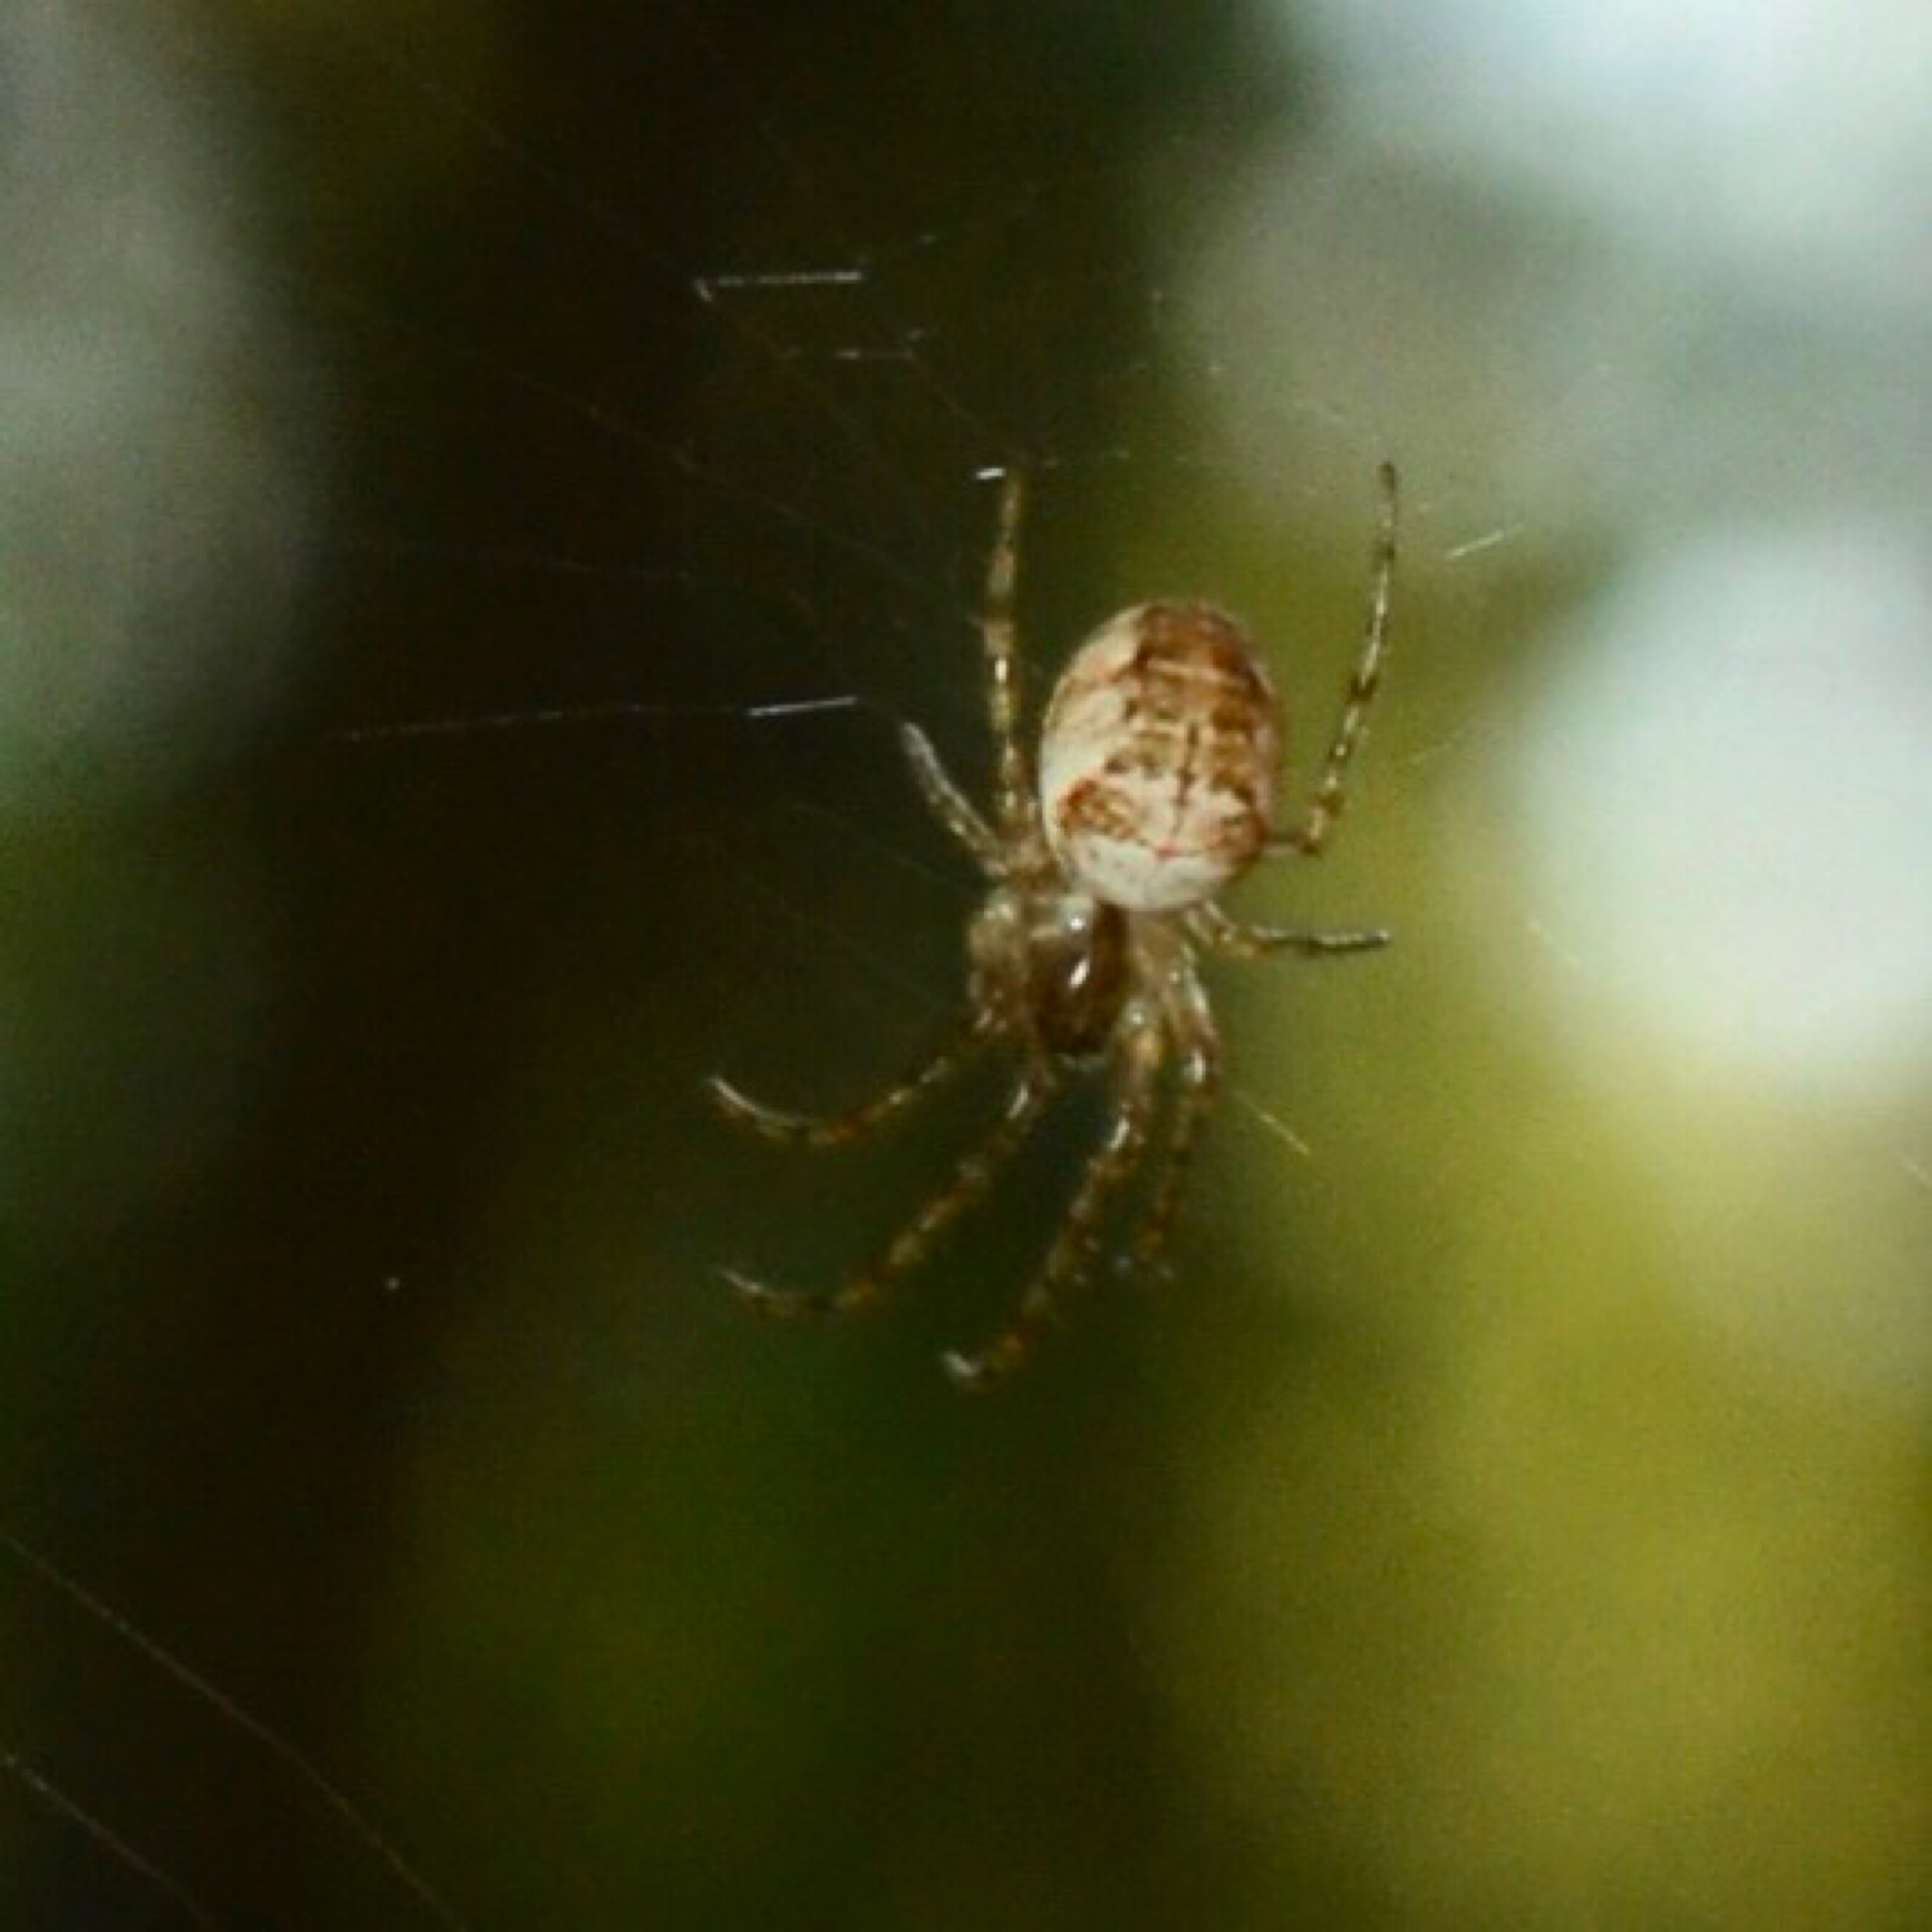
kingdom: Animalia
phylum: Arthropoda
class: Arachnida
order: Araneae
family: Tetragnathidae
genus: Metellina
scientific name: Metellina
